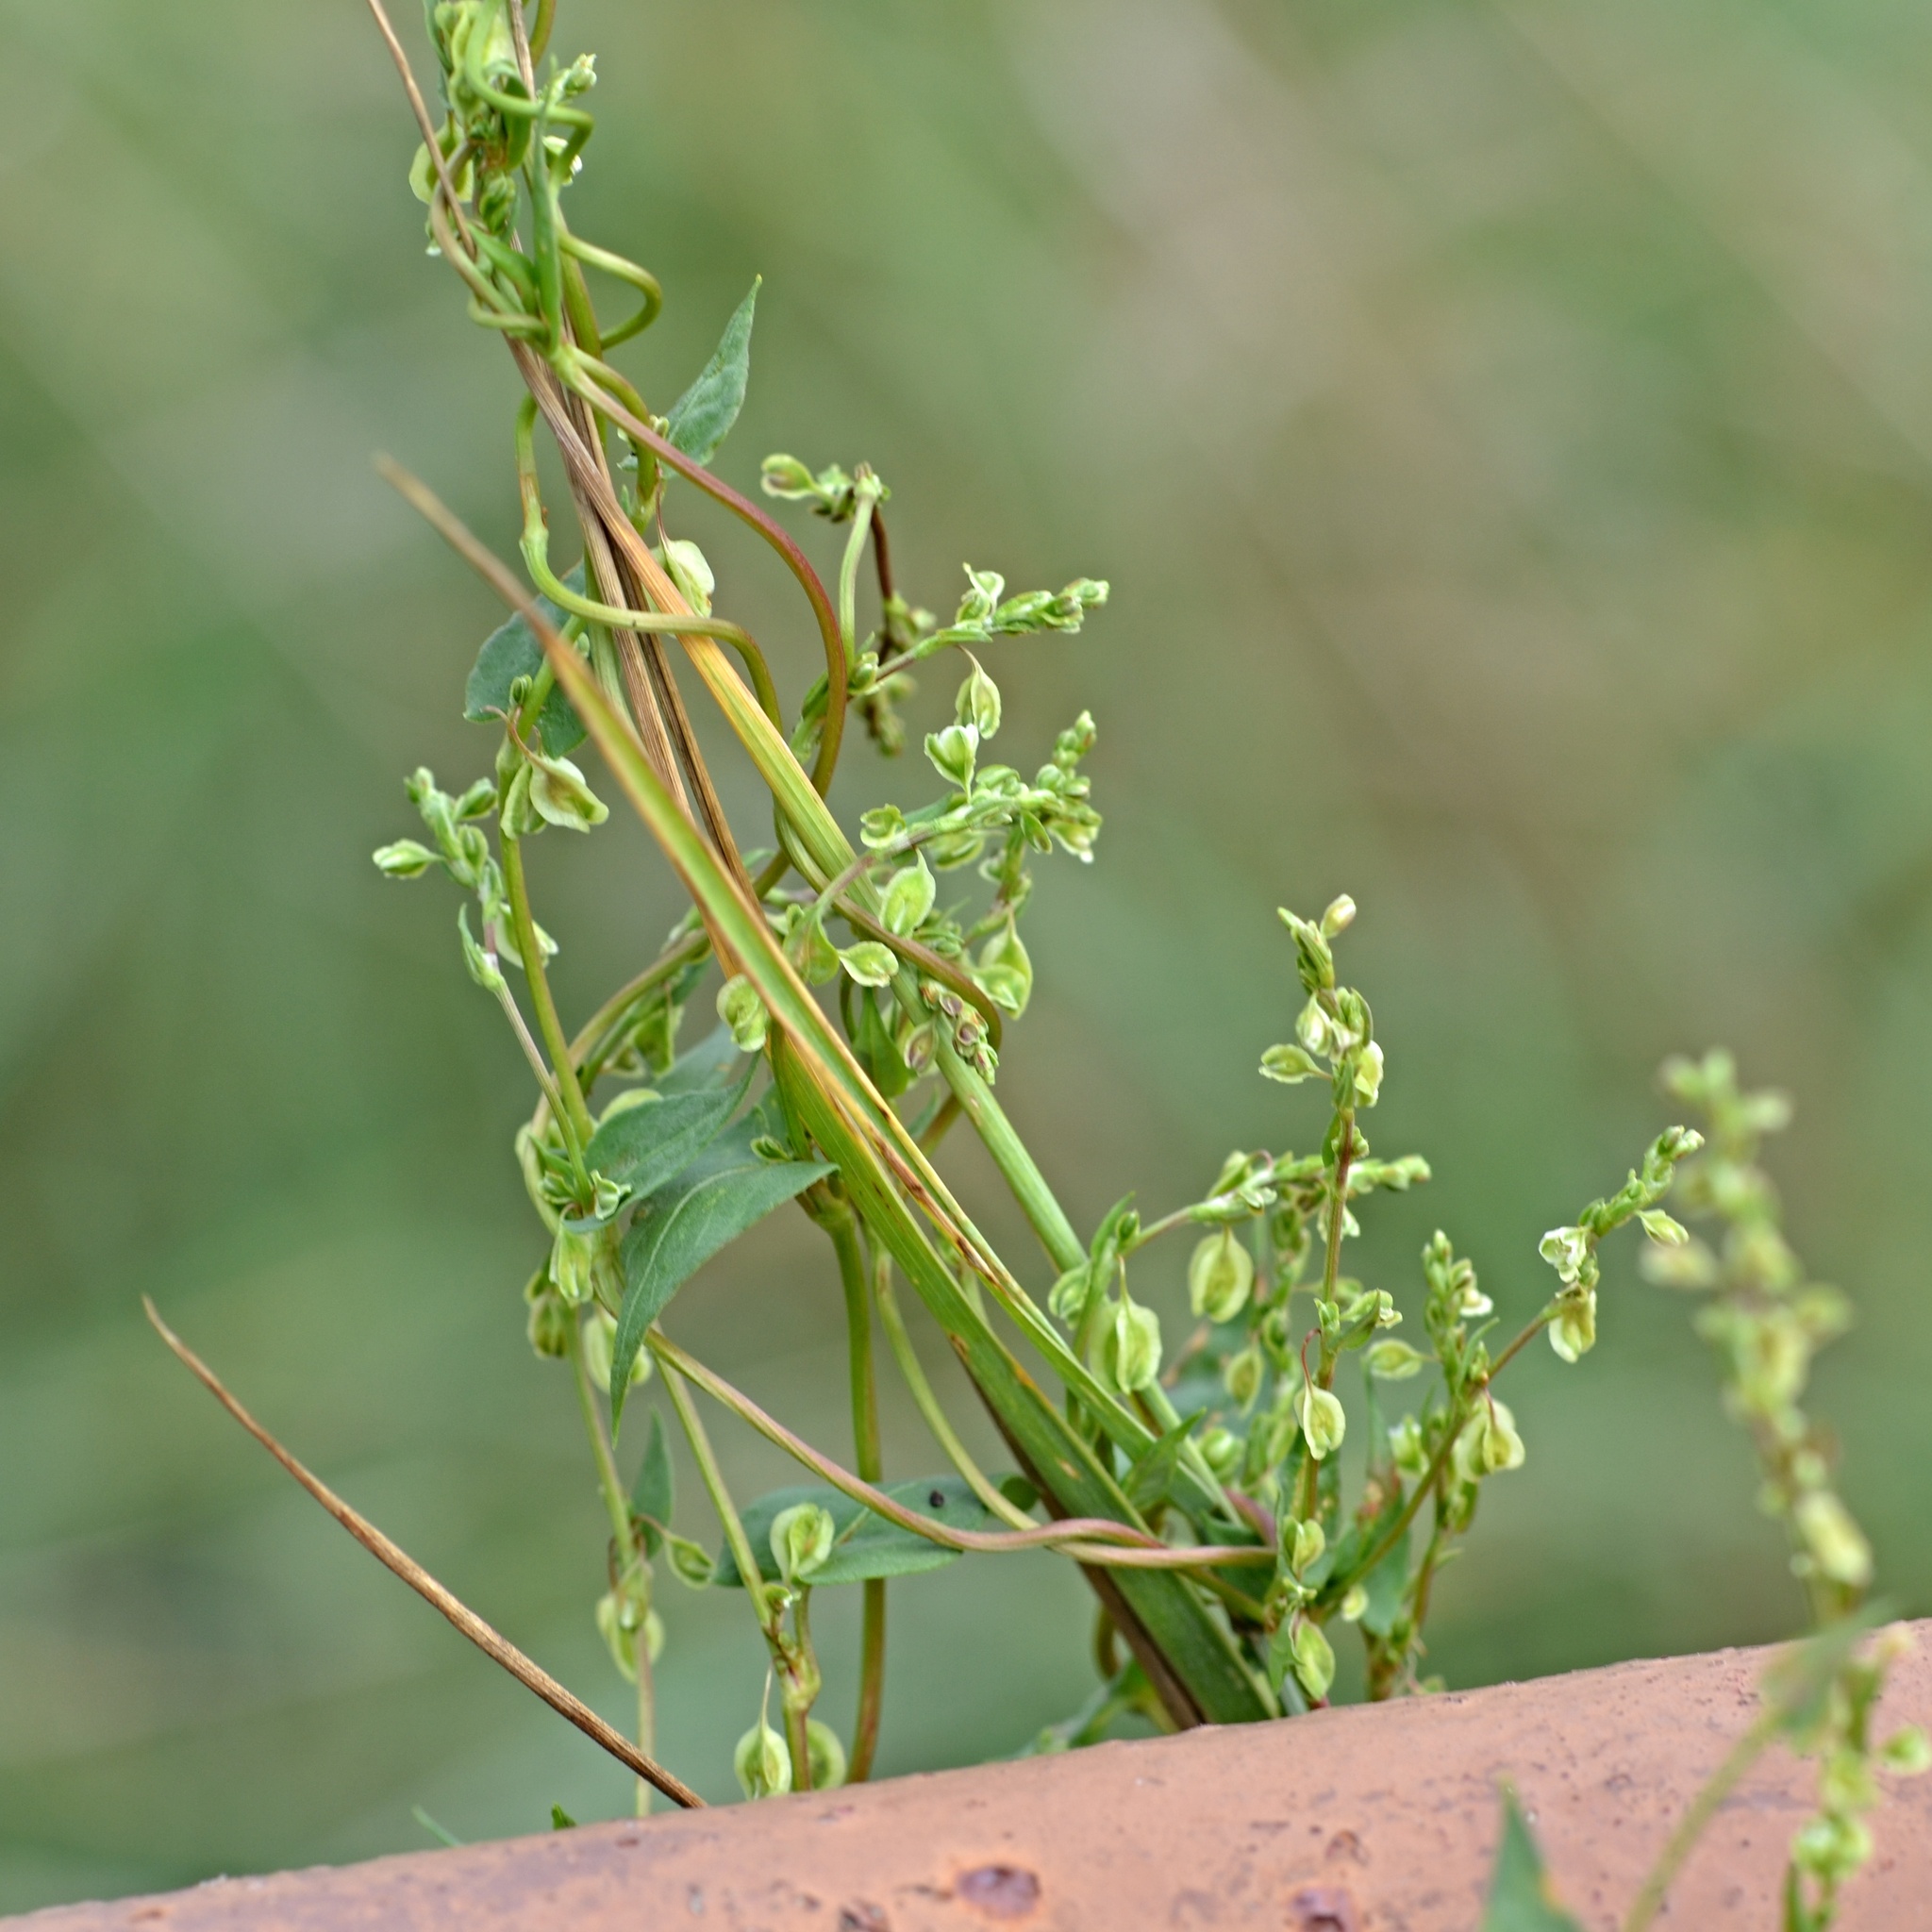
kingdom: Plantae
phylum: Tracheophyta
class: Magnoliopsida
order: Caryophyllales
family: Polygonaceae
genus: Fallopia
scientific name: Fallopia dumetorum
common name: Copse-bindweed
